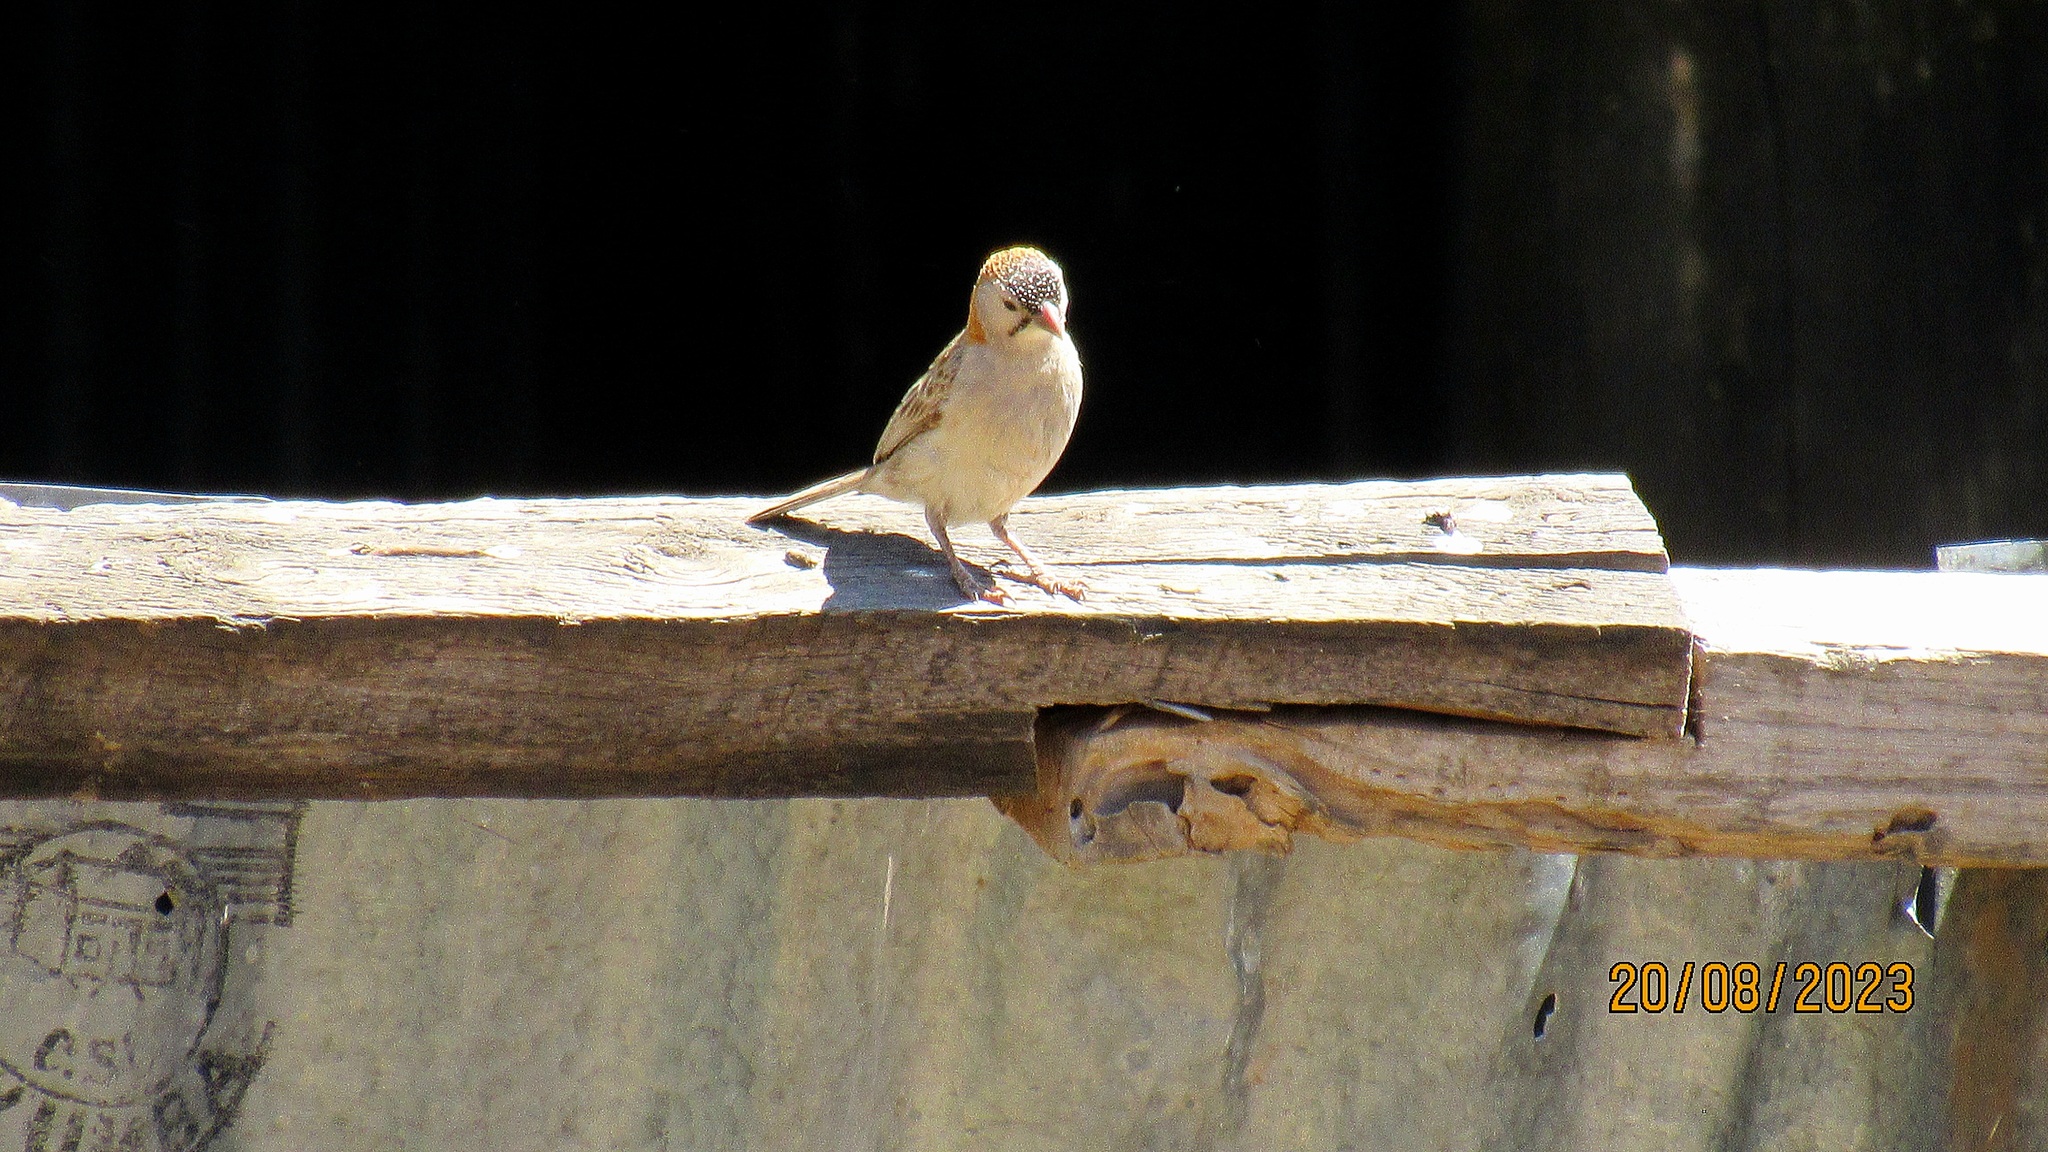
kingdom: Animalia
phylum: Chordata
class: Aves
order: Passeriformes
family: Ploceidae
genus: Sporopipes
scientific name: Sporopipes frontalis
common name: Speckle-fronted weaver
